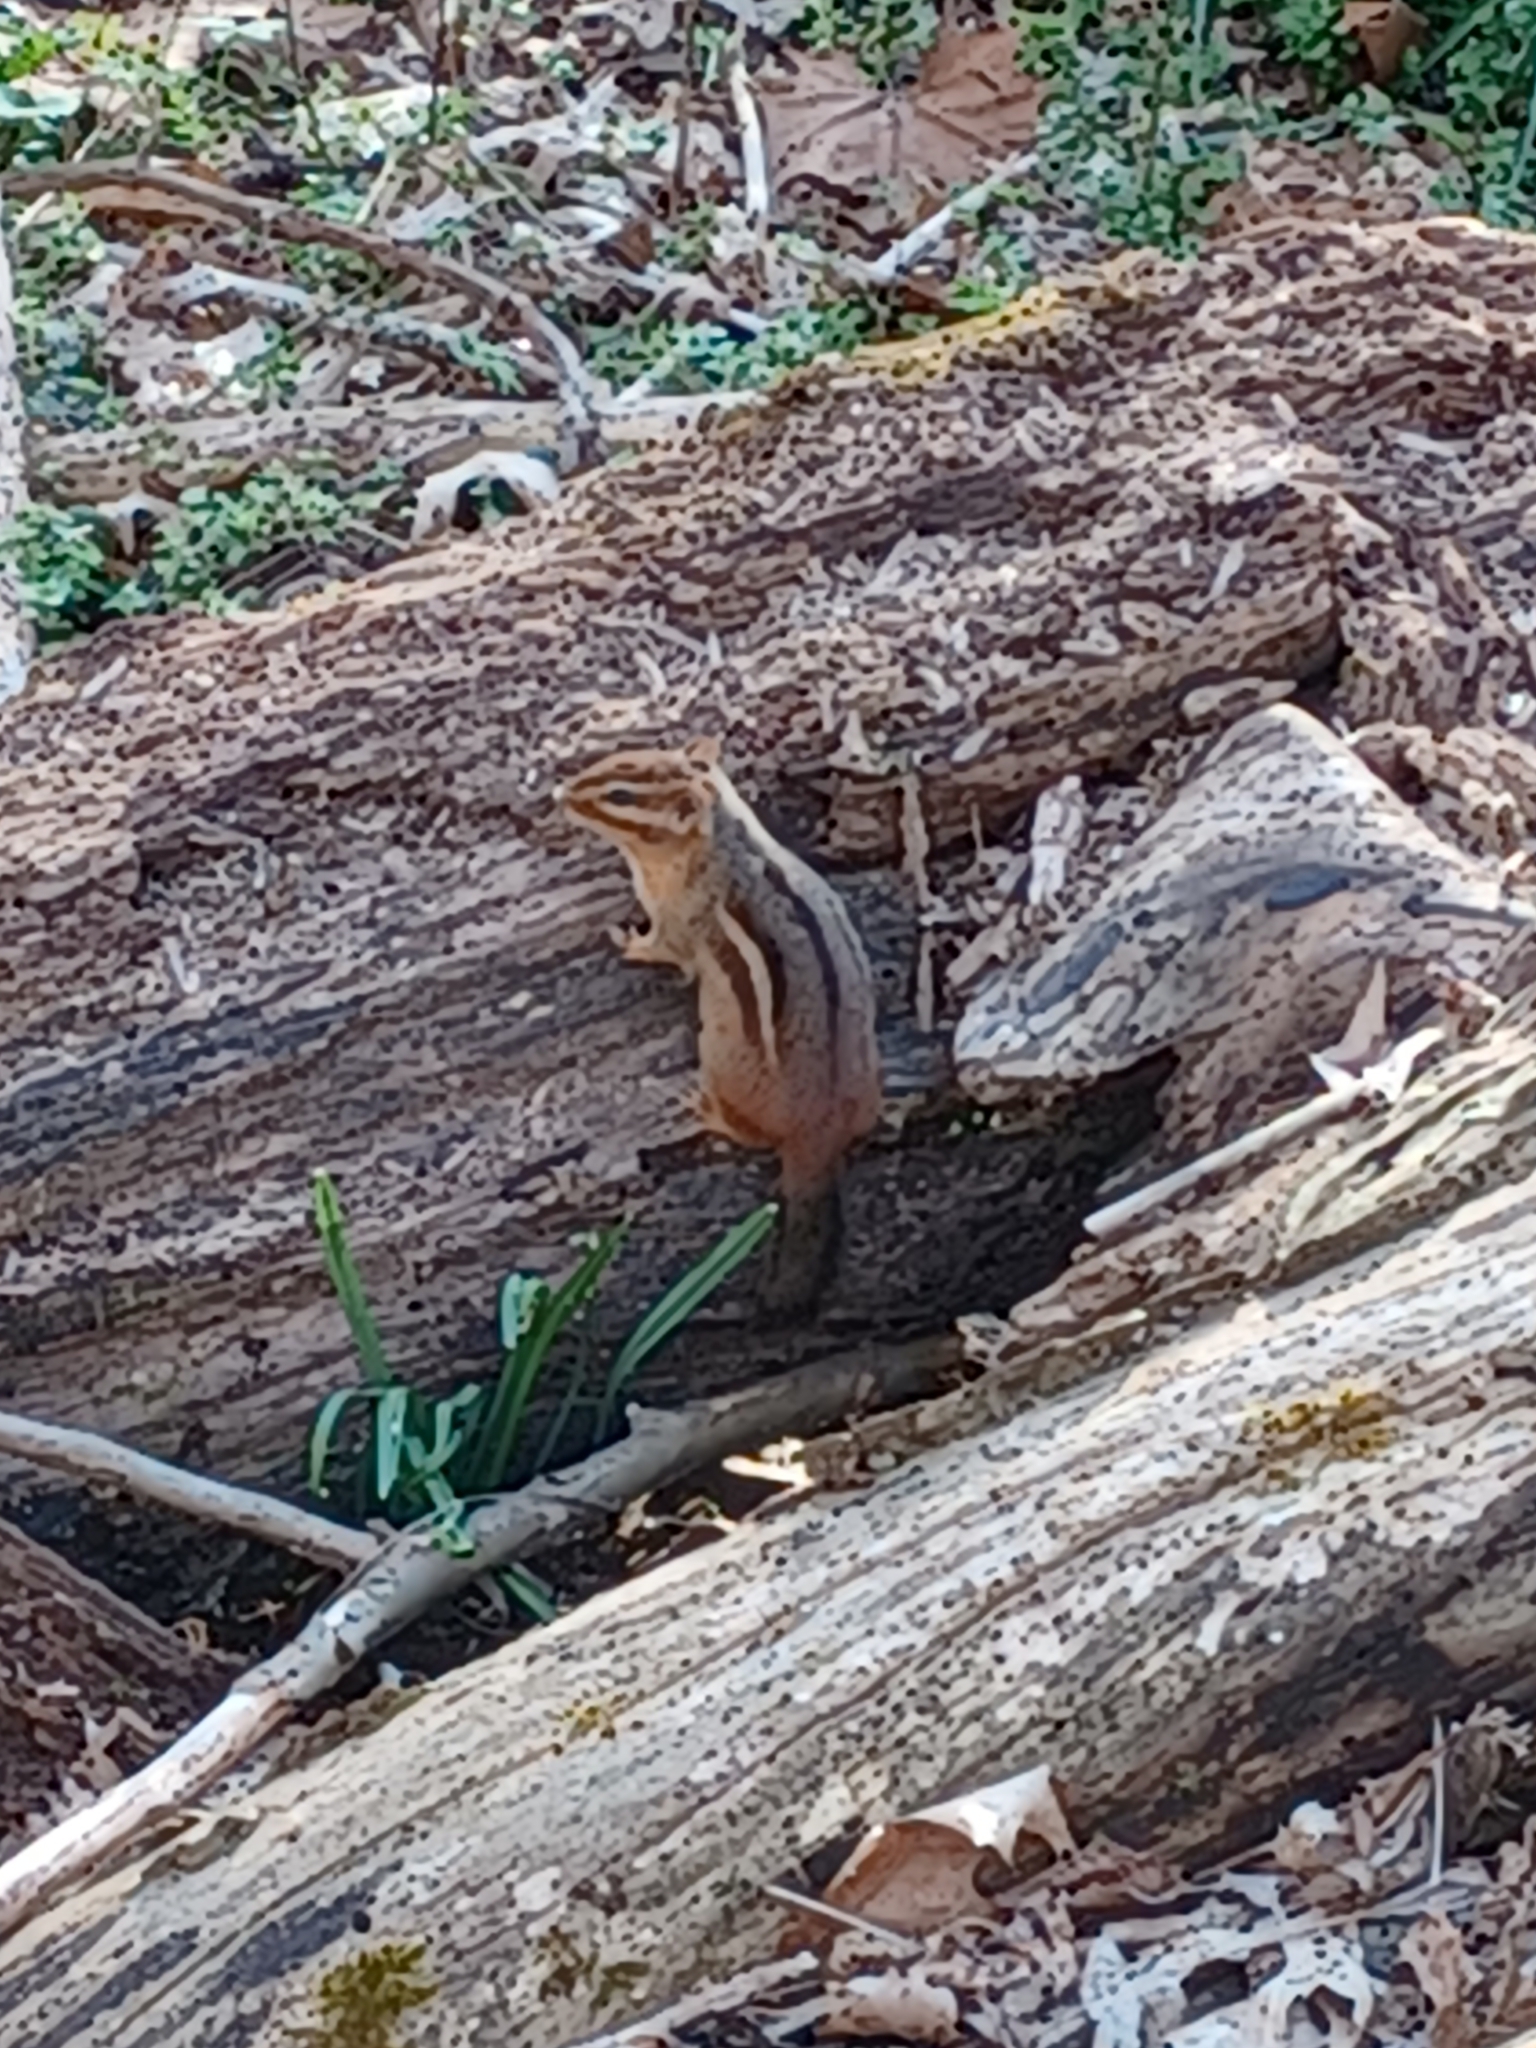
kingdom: Animalia
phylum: Chordata
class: Mammalia
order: Rodentia
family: Sciuridae
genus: Tamias
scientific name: Tamias striatus
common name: Eastern chipmunk
